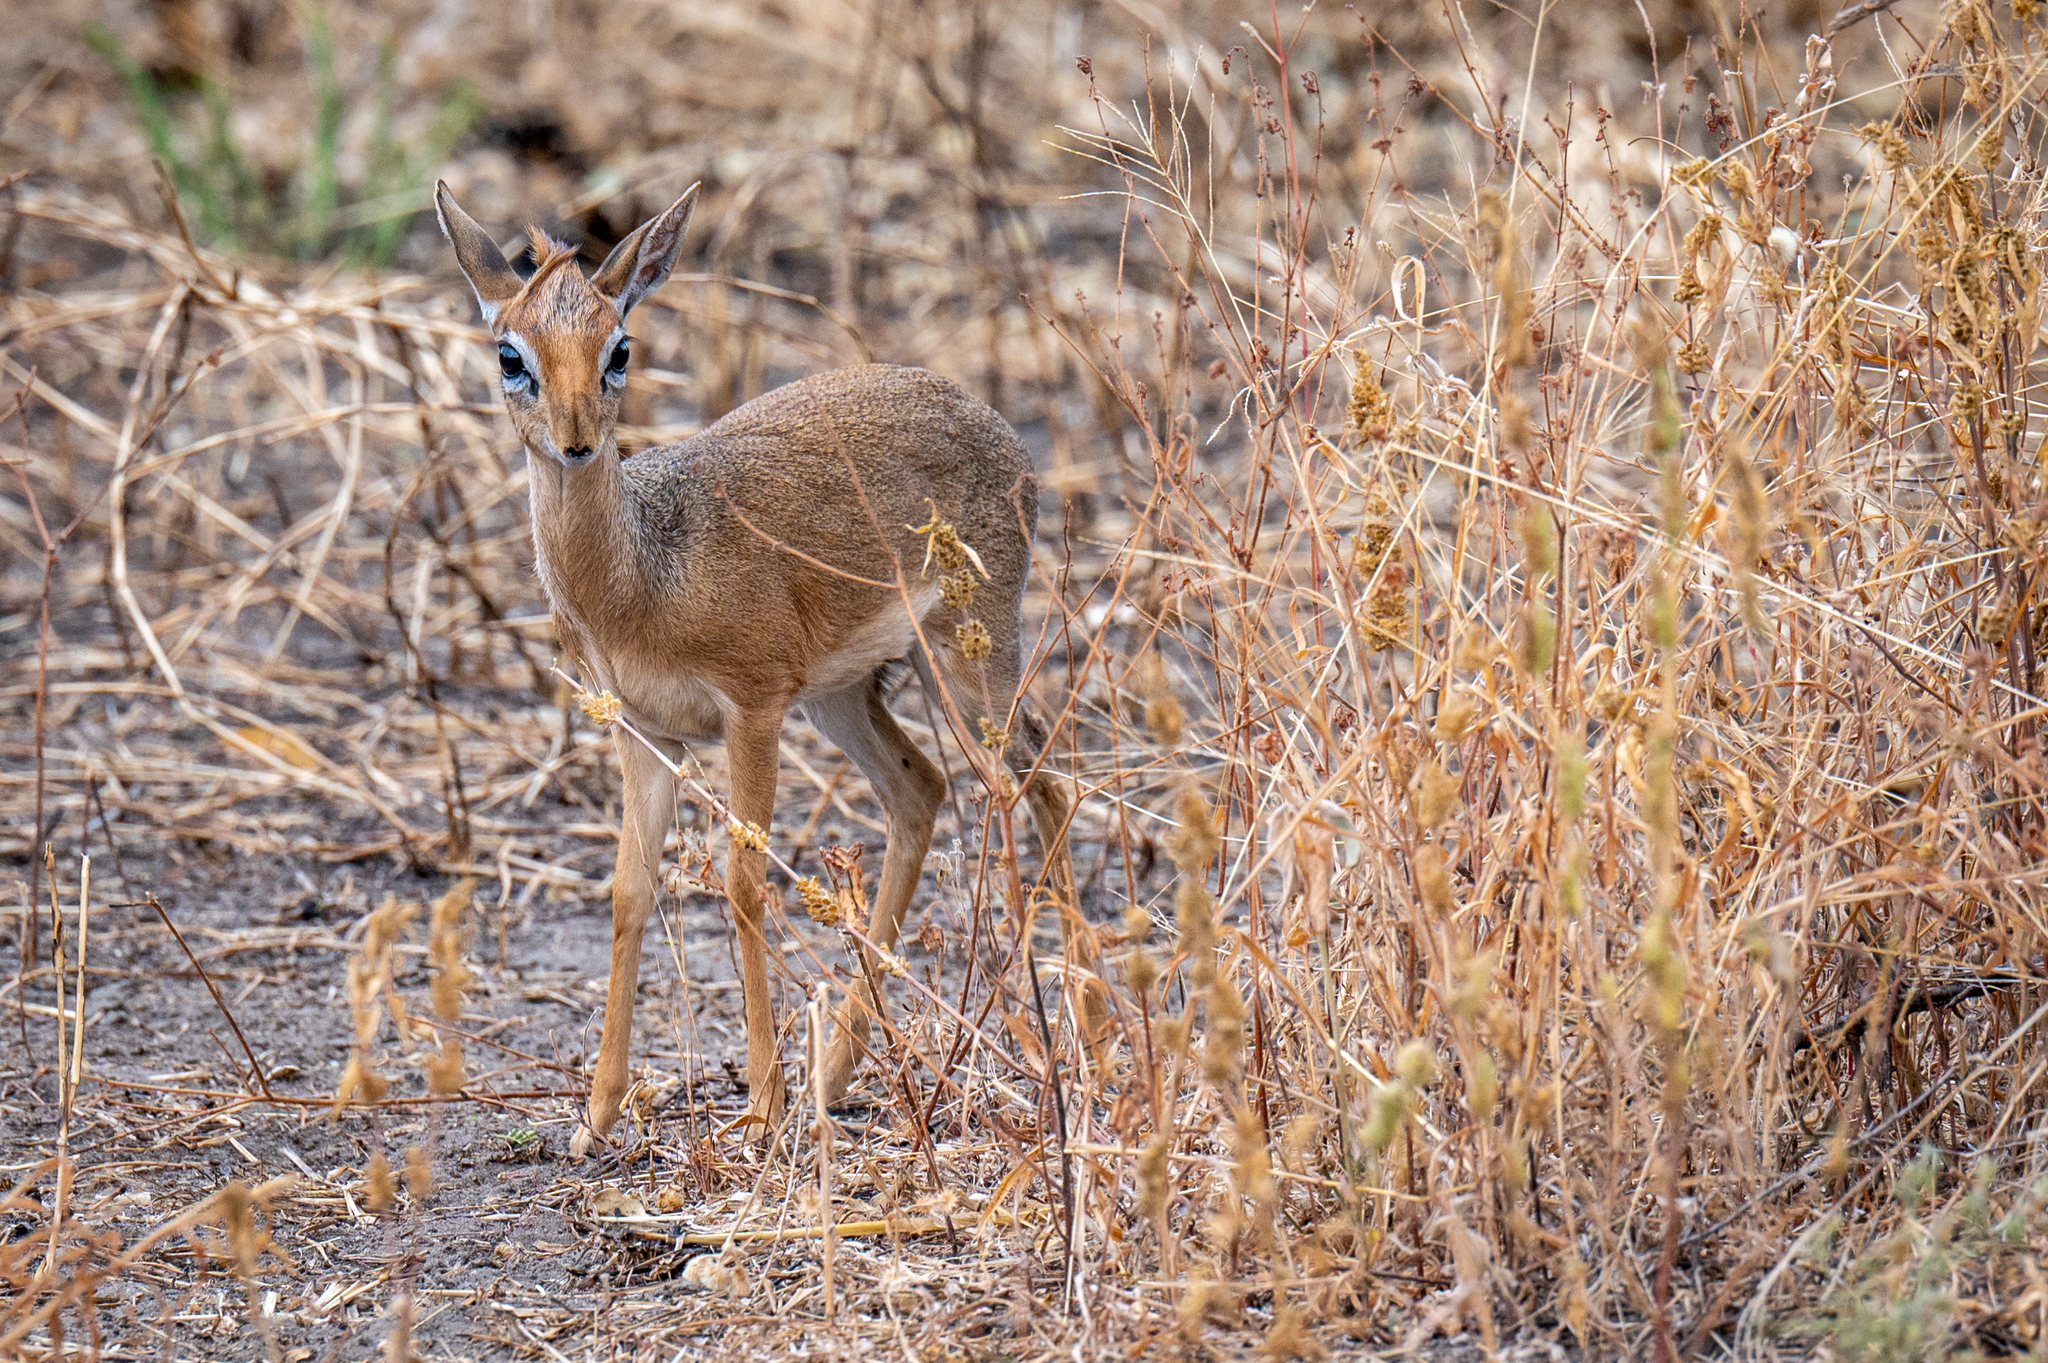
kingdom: Animalia
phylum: Chordata
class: Mammalia
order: Artiodactyla
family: Bovidae
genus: Madoqua
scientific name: Madoqua
